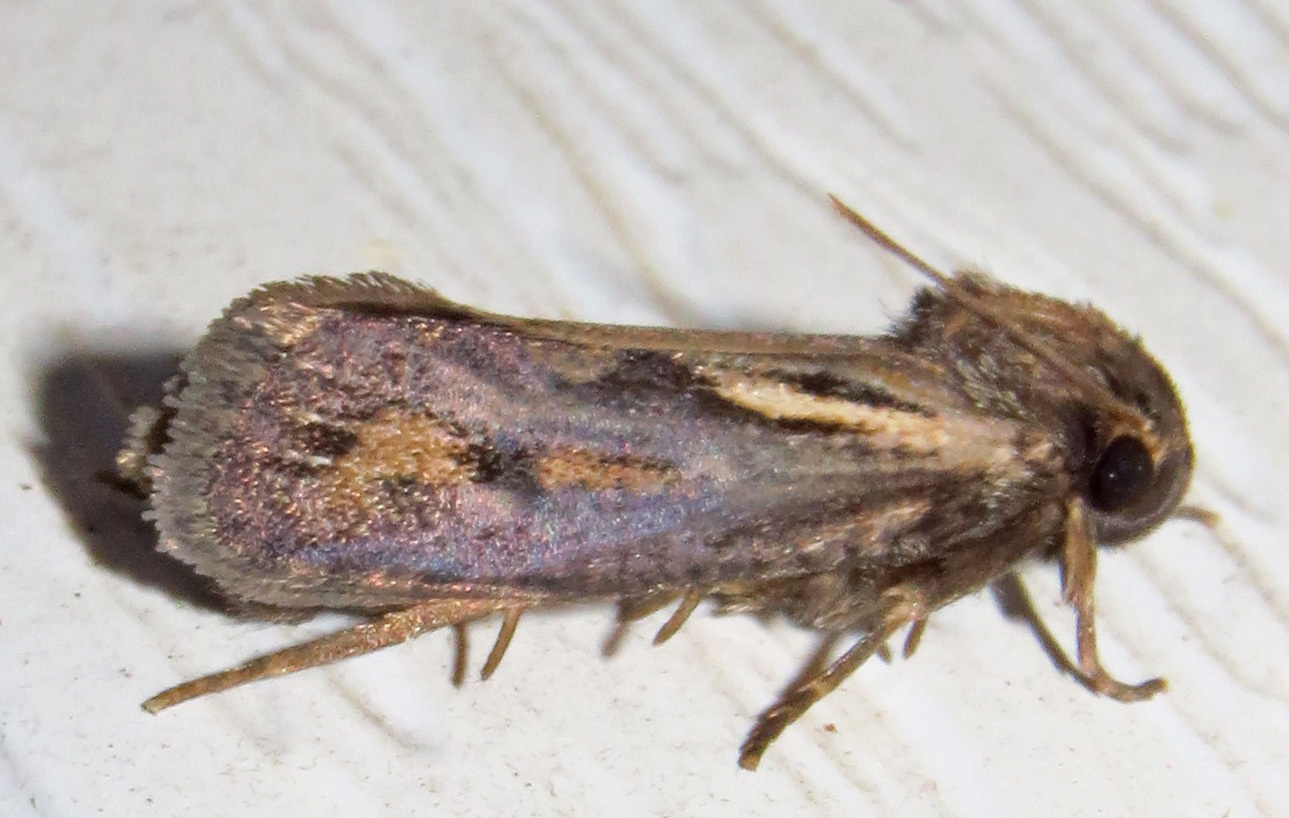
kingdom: Animalia
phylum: Arthropoda
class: Insecta
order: Lepidoptera
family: Tineidae
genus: Acrolophus
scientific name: Acrolophus popeanella
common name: Clemens' grass tubeworm moth
